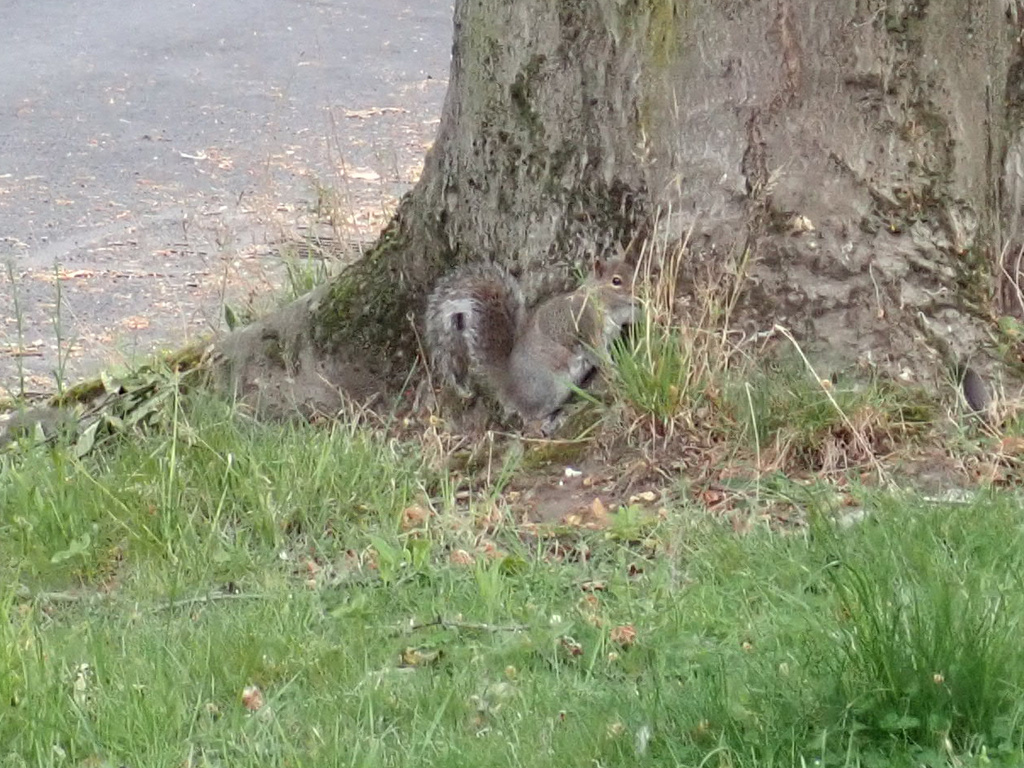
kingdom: Animalia
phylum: Chordata
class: Mammalia
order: Rodentia
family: Sciuridae
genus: Sciurus
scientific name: Sciurus carolinensis
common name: Eastern gray squirrel
